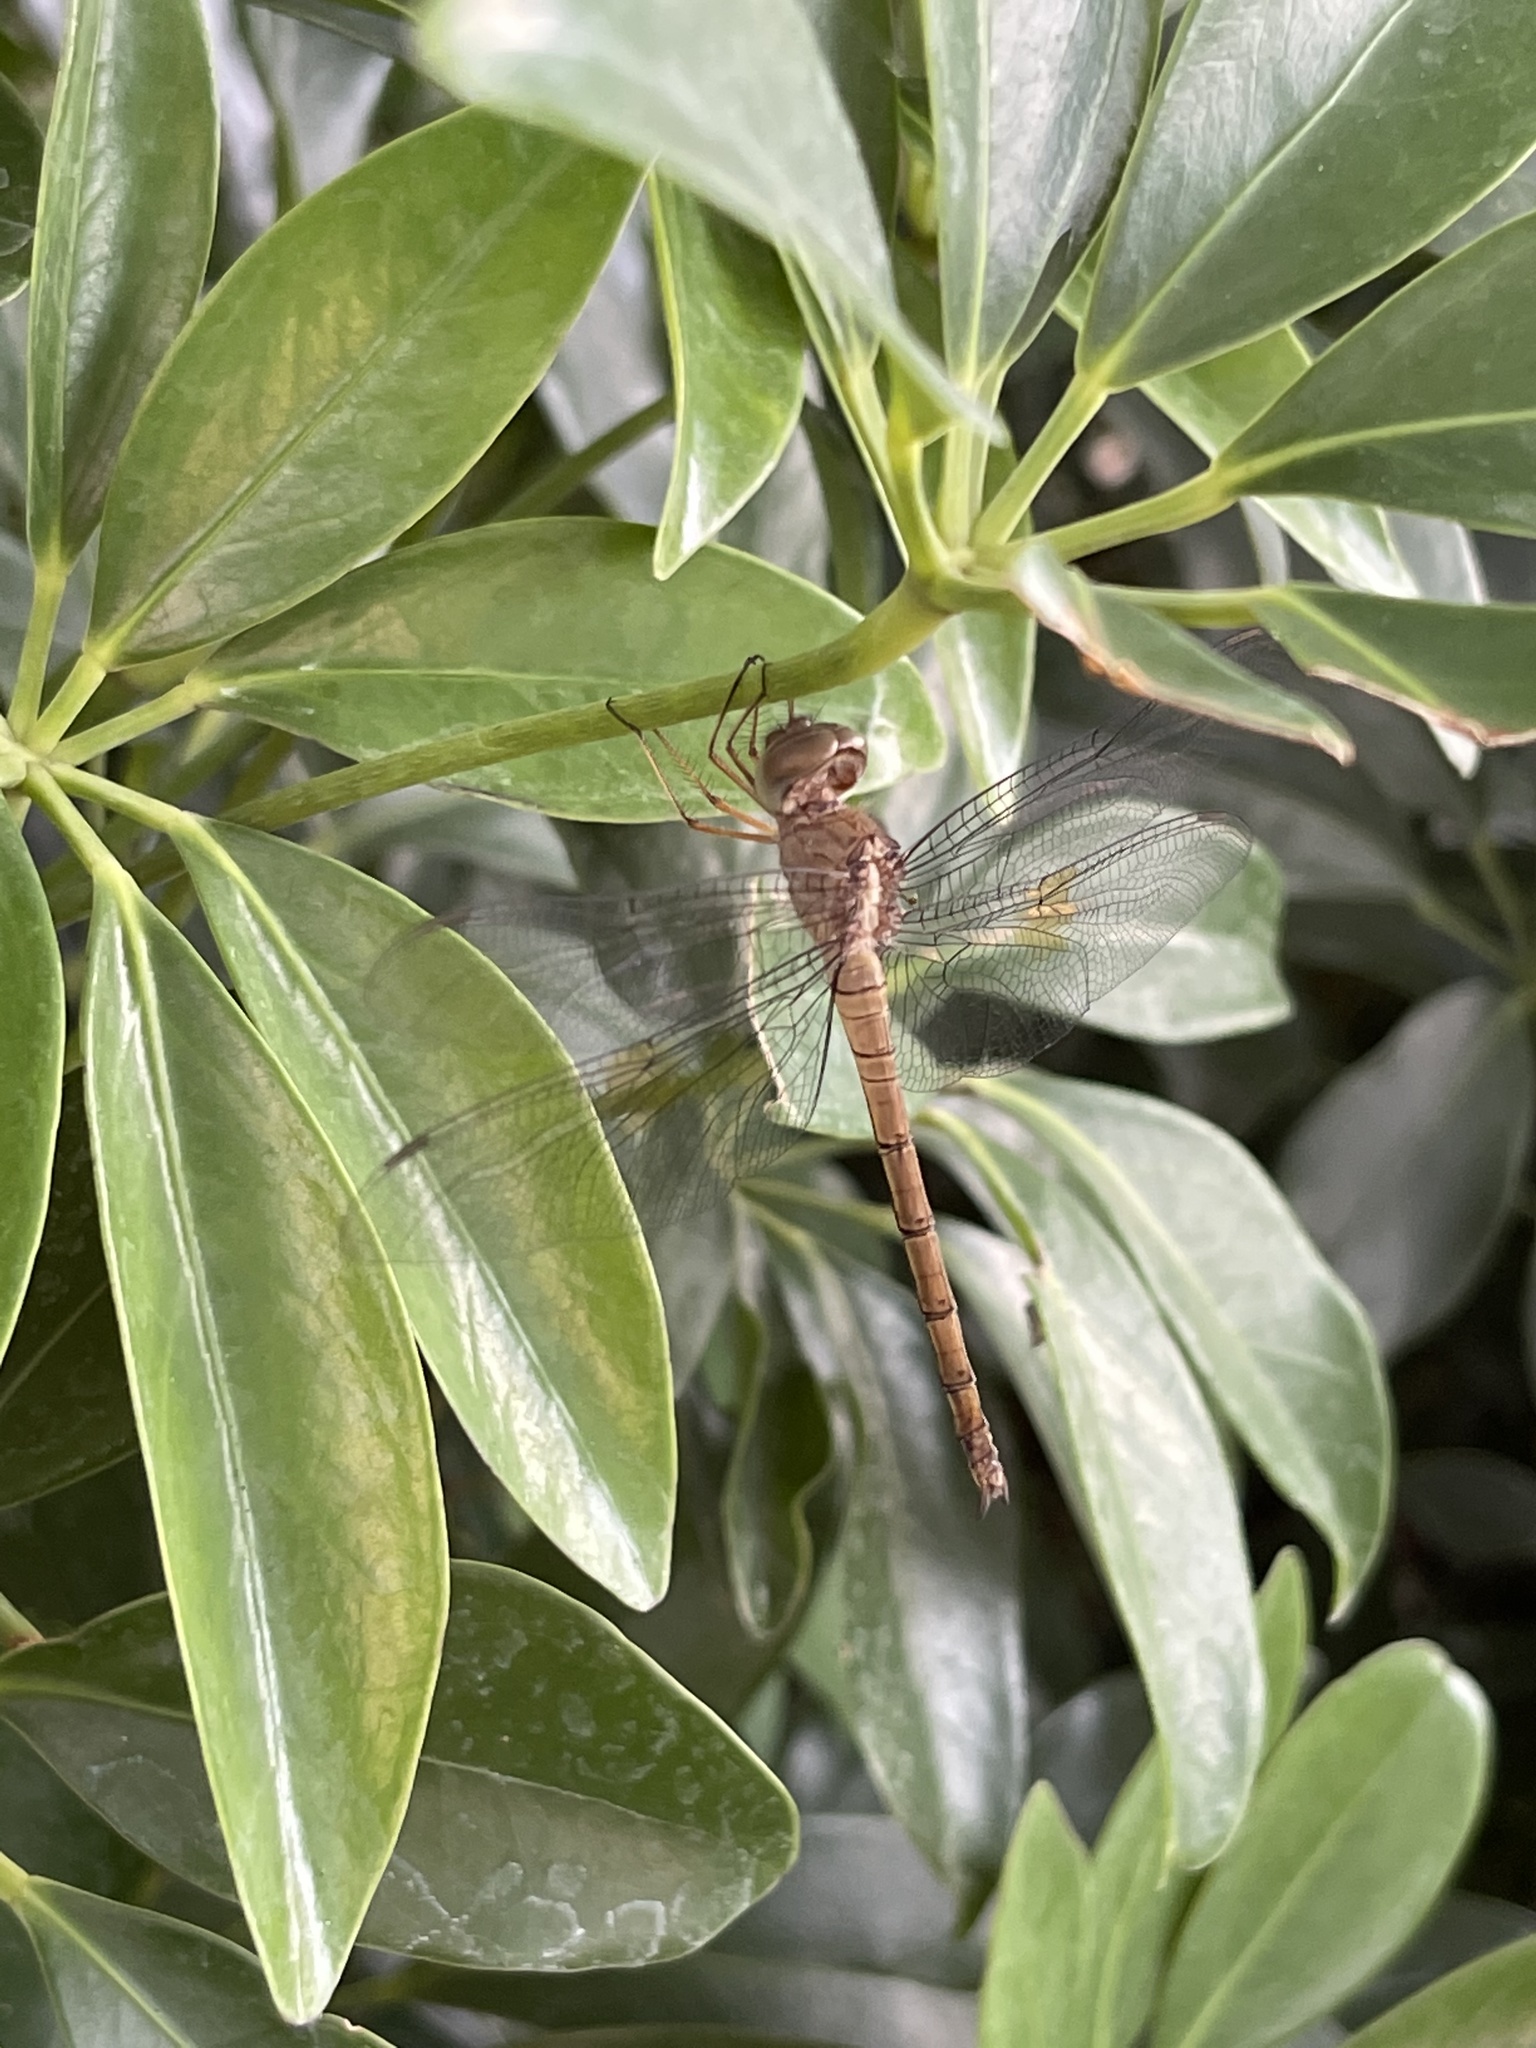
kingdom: Animalia
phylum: Arthropoda
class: Insecta
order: Odonata
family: Libellulidae
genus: Tholymis
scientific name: Tholymis citrina
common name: Evening skimmer
